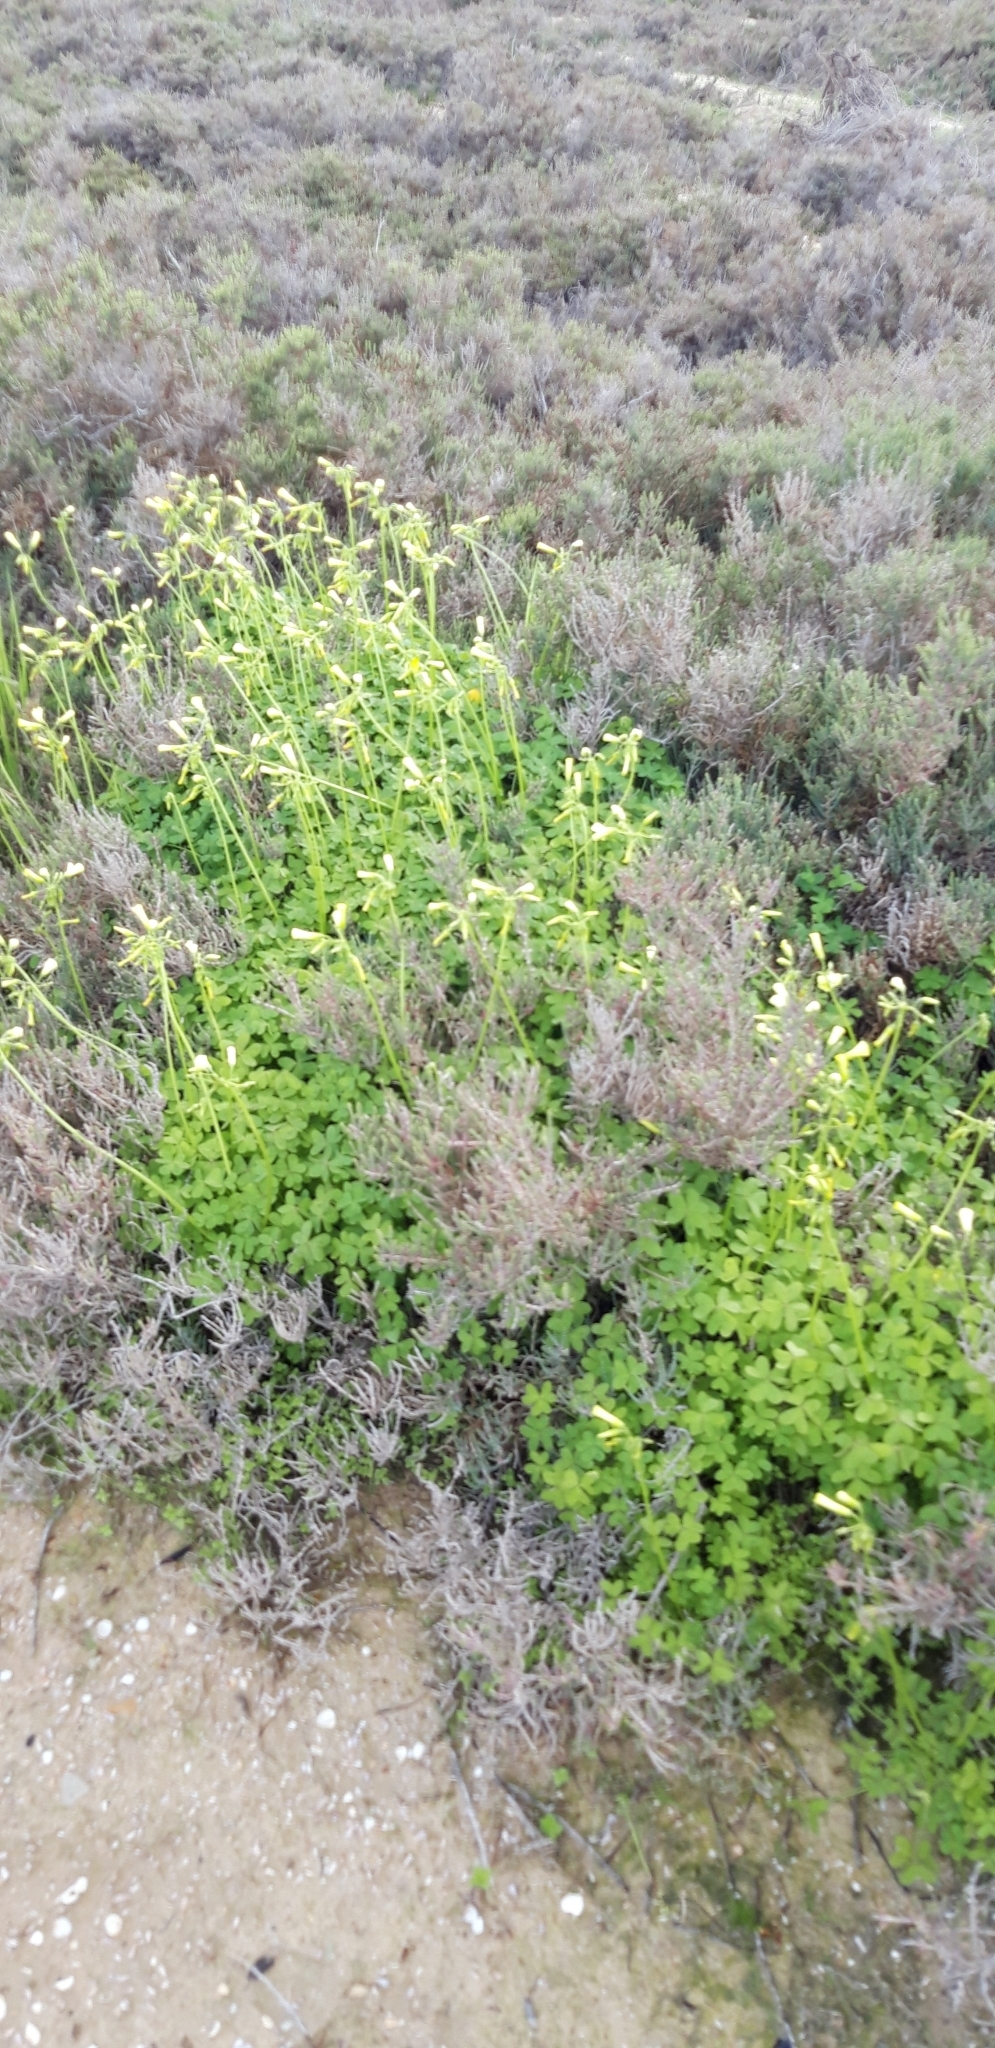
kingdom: Plantae
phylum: Tracheophyta
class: Magnoliopsida
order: Oxalidales
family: Oxalidaceae
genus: Oxalis
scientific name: Oxalis pes-caprae
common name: Bermuda-buttercup
